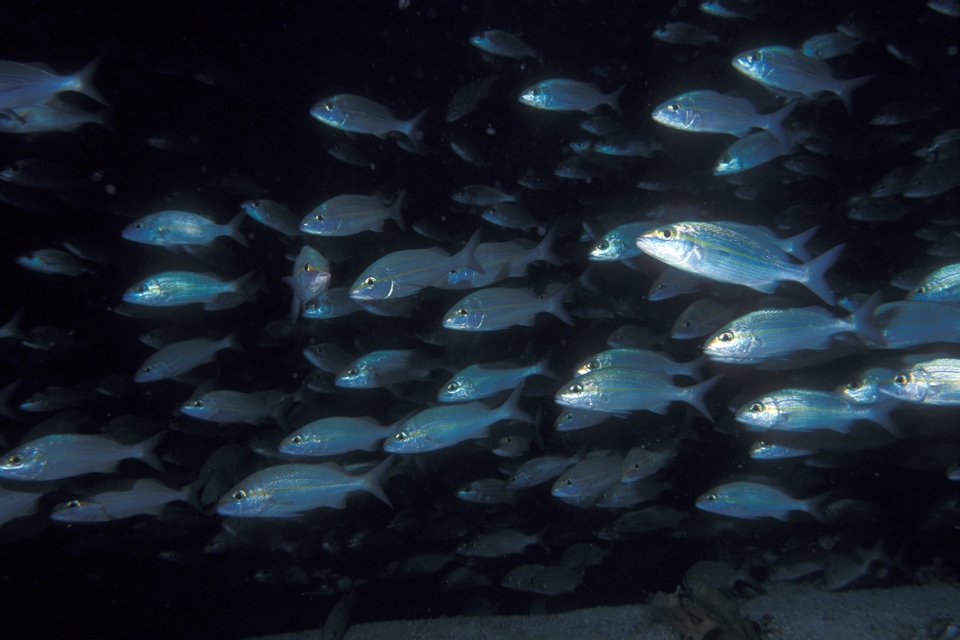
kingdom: Animalia
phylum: Chordata
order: Perciformes
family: Haemulidae
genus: Haemulon
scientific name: Haemulon aurolineatum
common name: Tomtate
